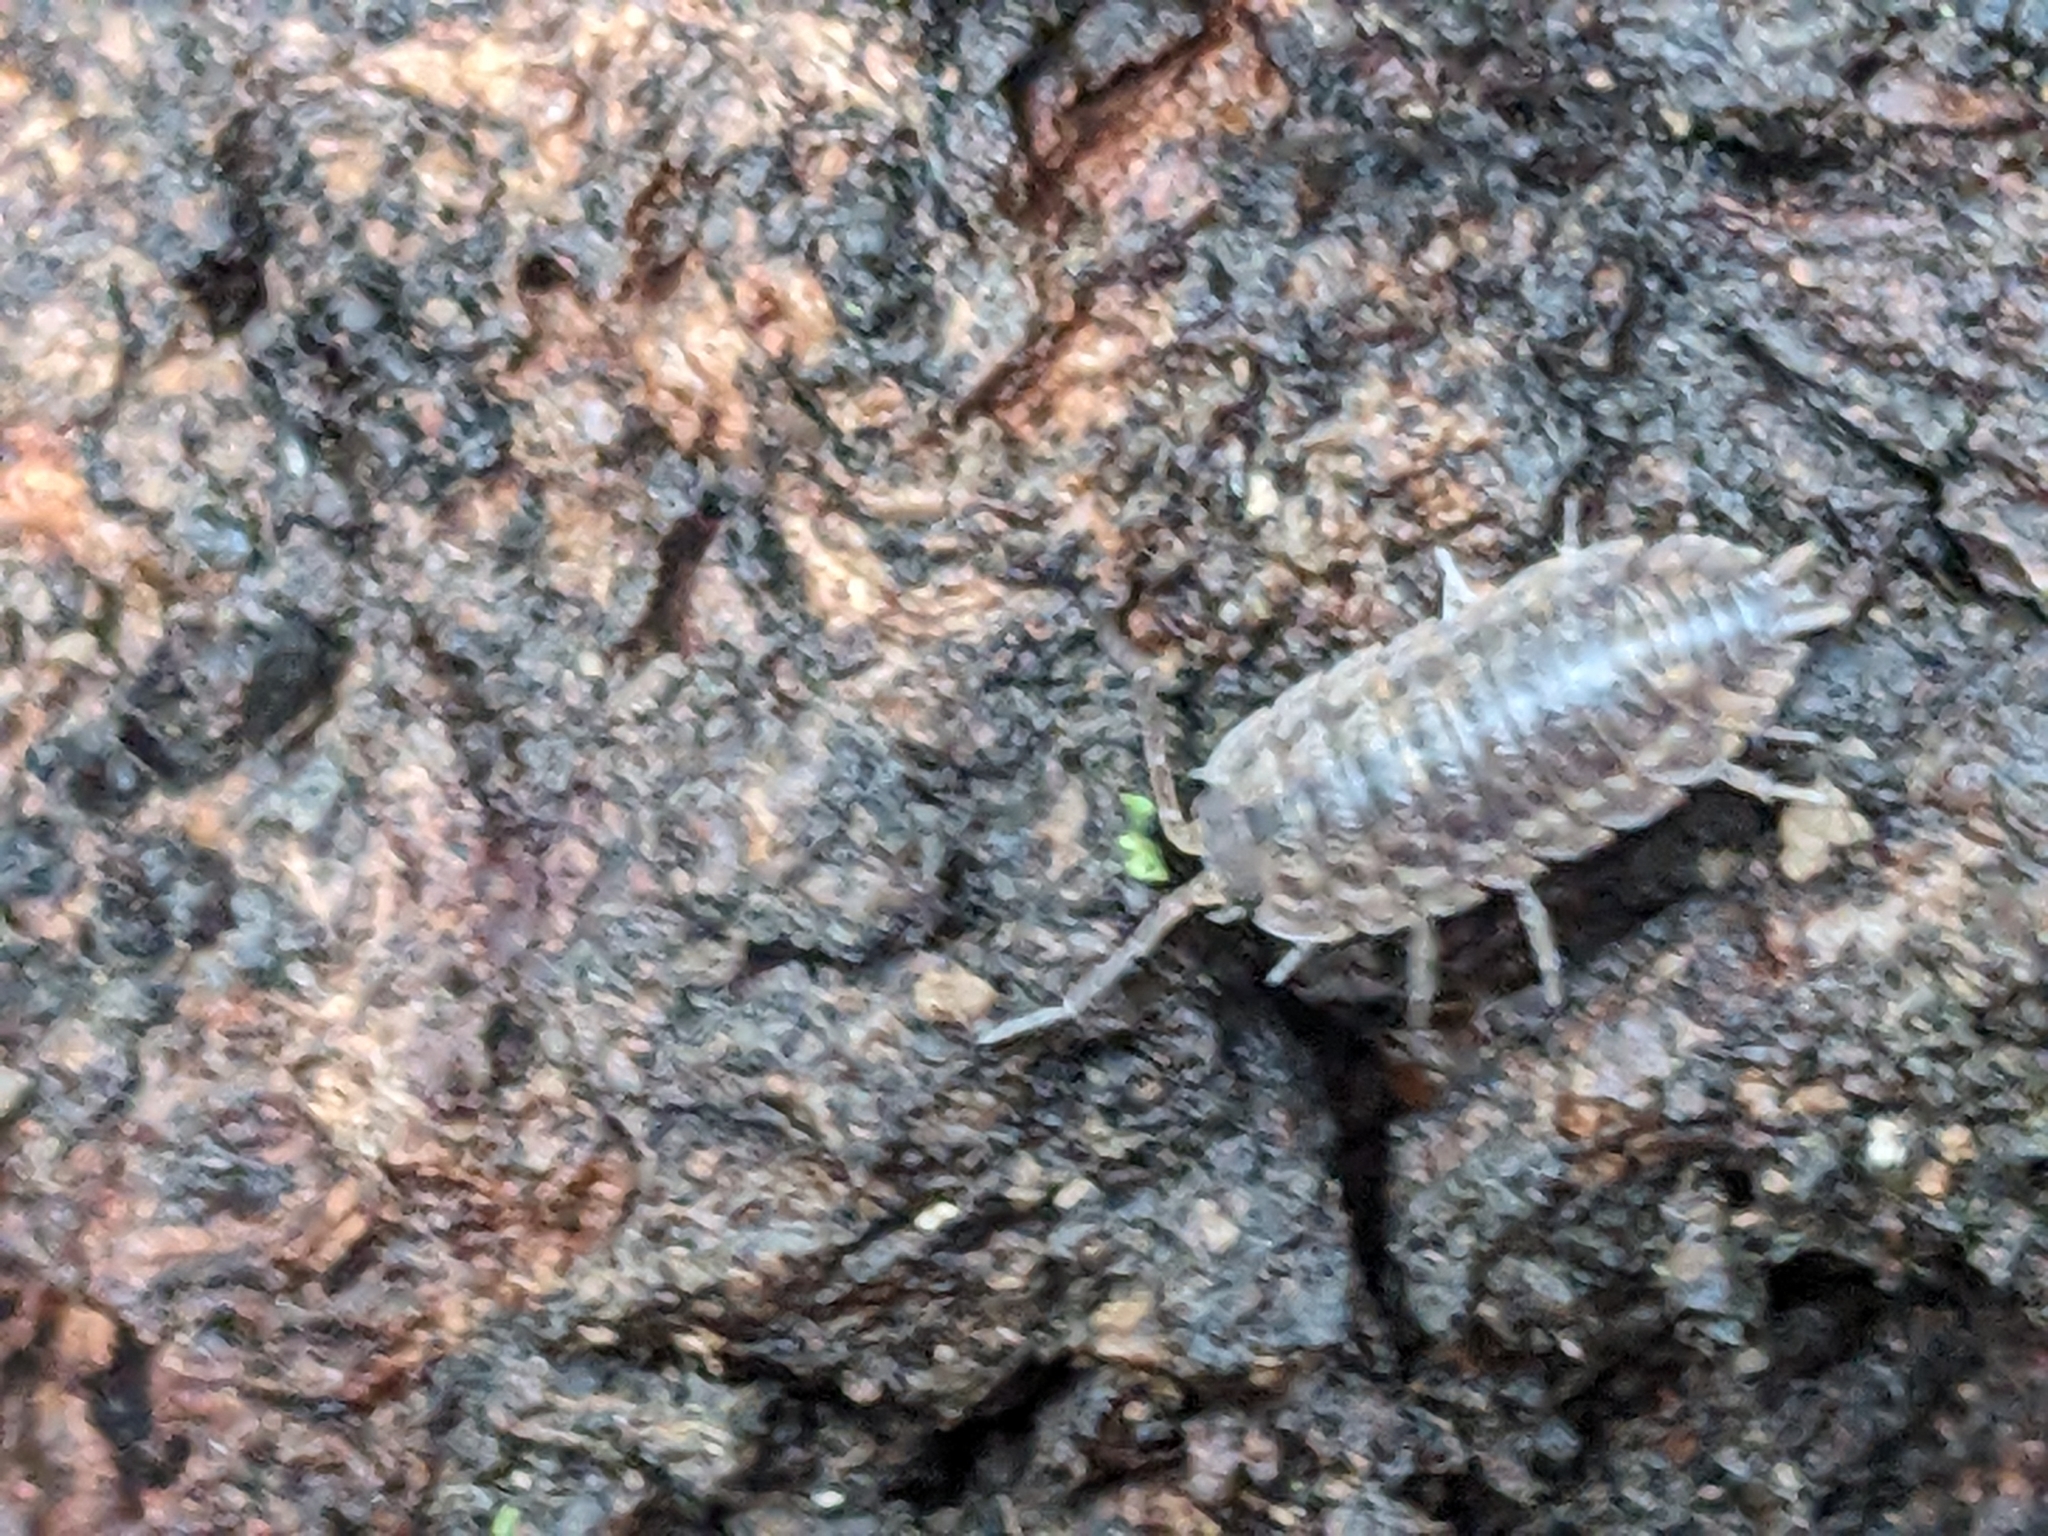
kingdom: Animalia
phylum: Arthropoda
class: Malacostraca
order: Isopoda
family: Trachelipodidae
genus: Trachelipus
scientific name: Trachelipus rathkii
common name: Isopod
